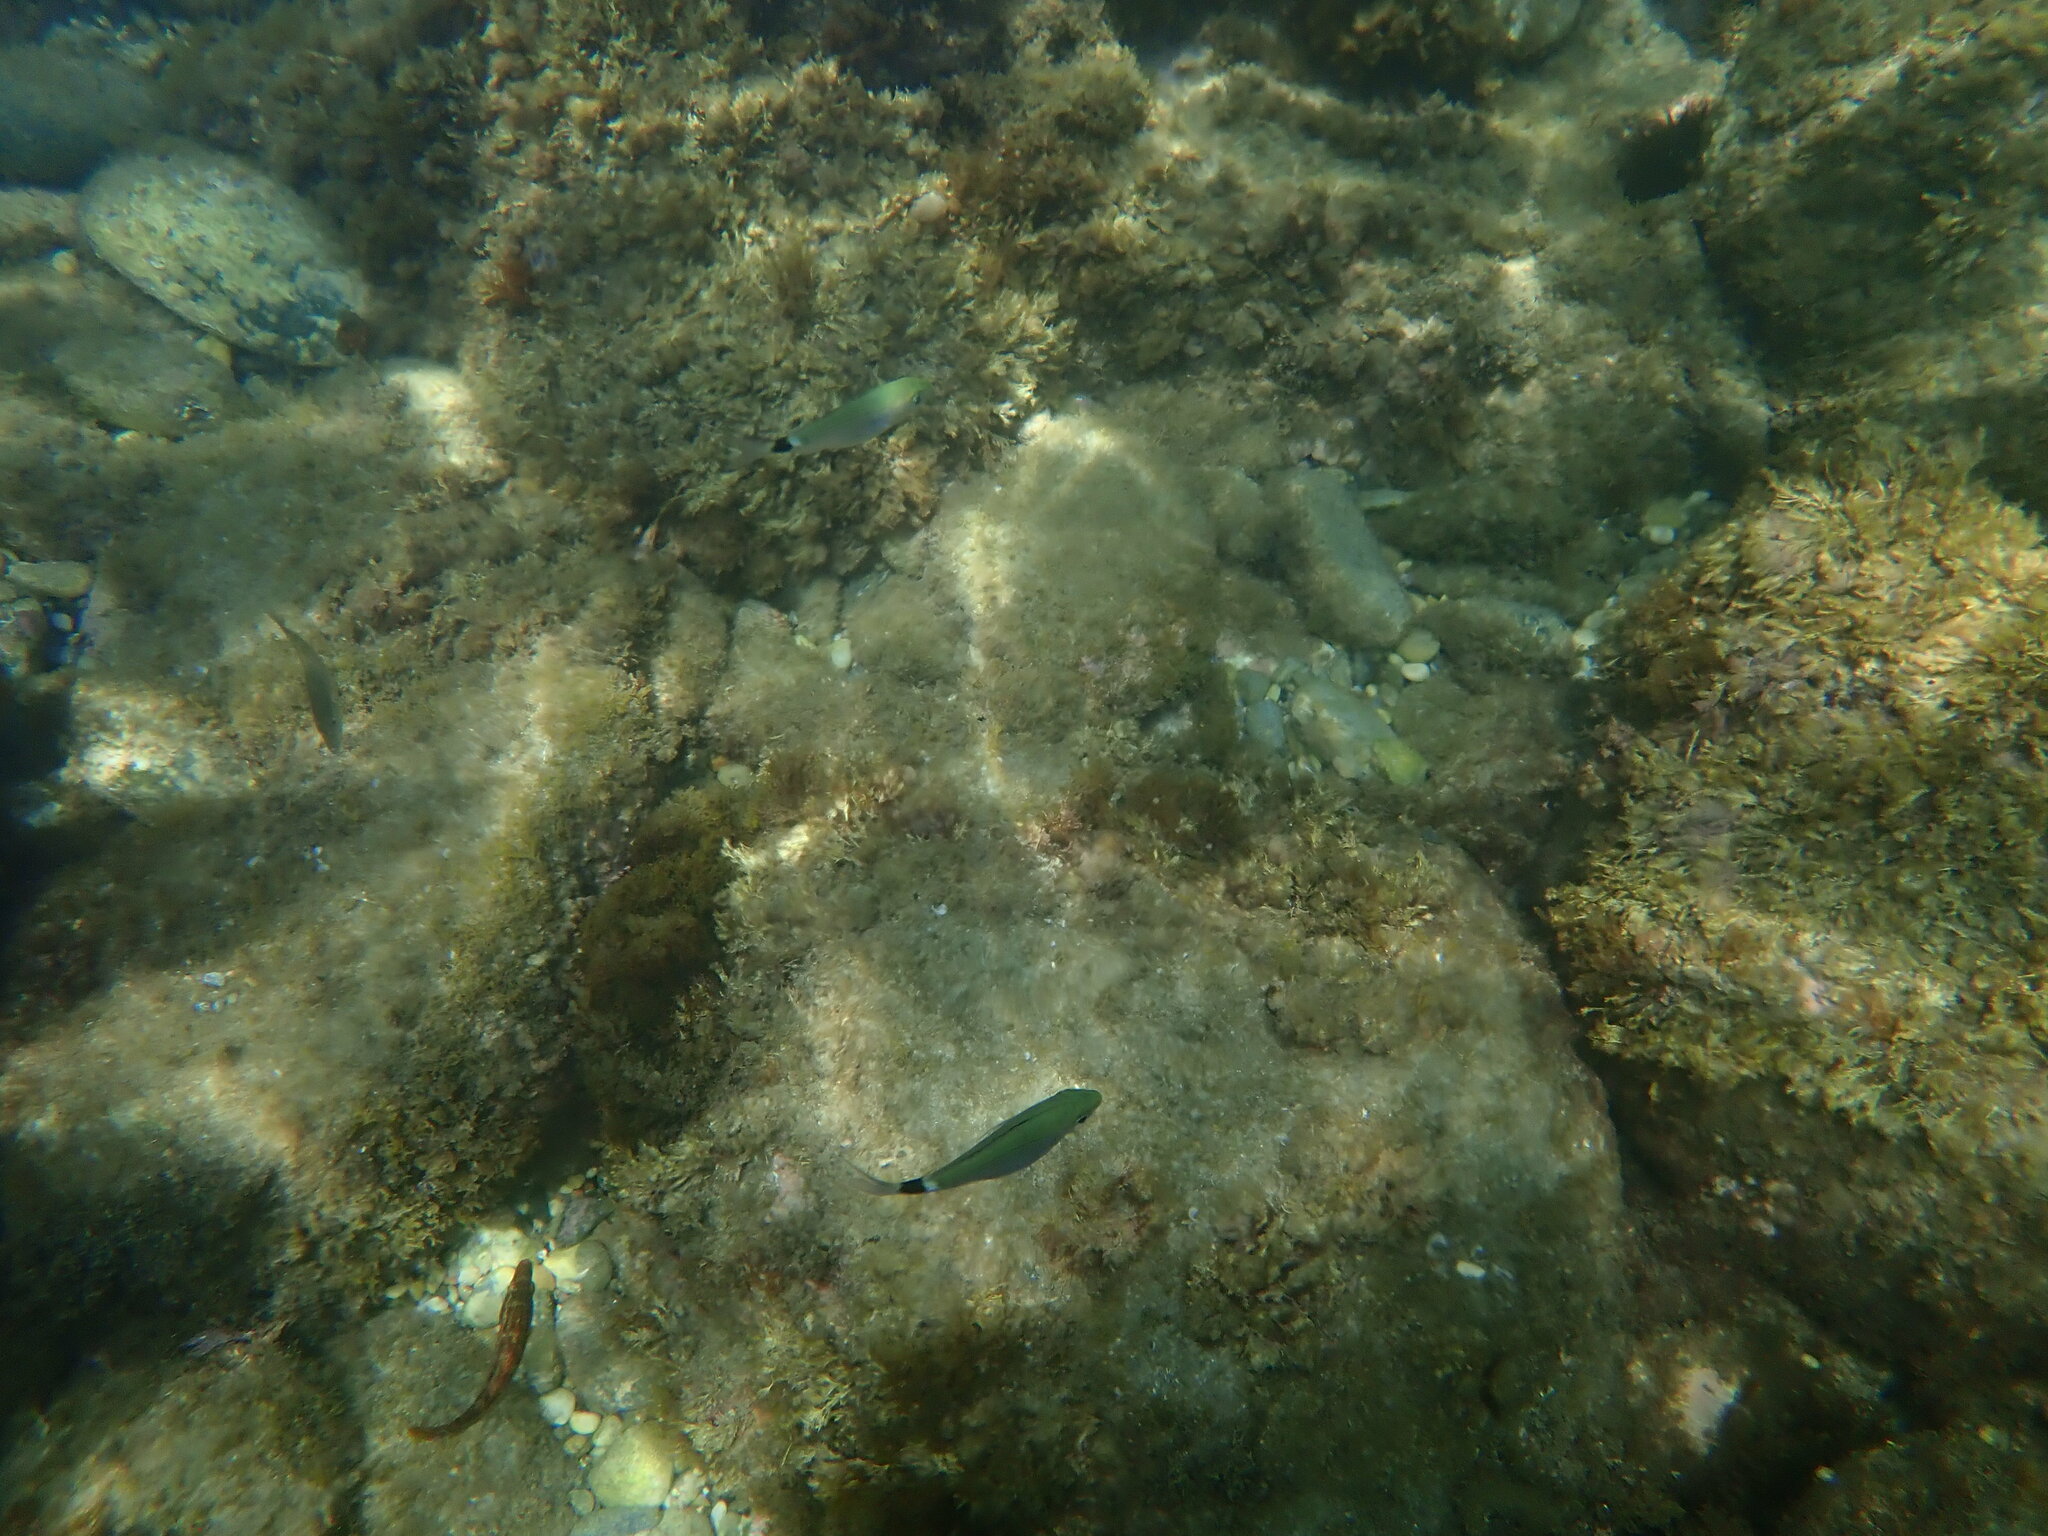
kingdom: Animalia
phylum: Chordata
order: Perciformes
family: Sparidae
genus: Oblada
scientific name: Oblada melanura
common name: Saddled seabream
